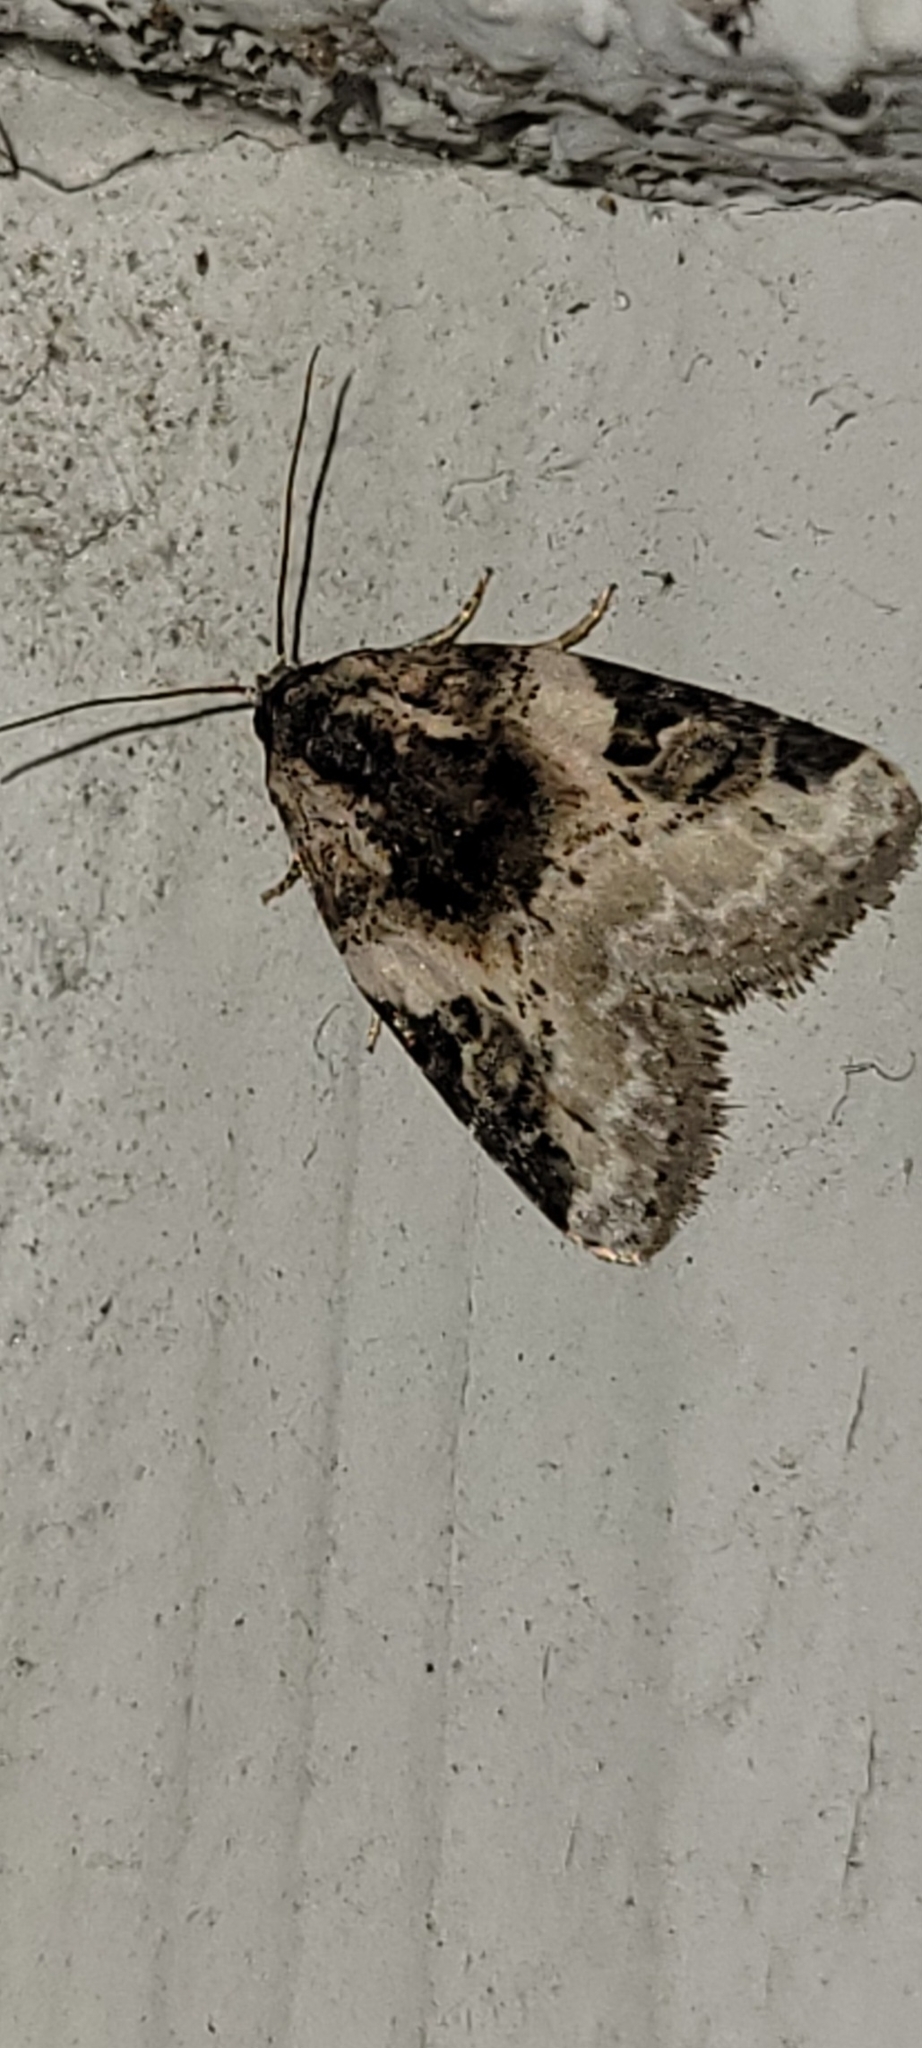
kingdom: Animalia
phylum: Arthropoda
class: Insecta
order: Lepidoptera
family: Noctuidae
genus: Pseudeustrotia
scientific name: Pseudeustrotia carneola
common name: Pink-barred lithacodia moth
